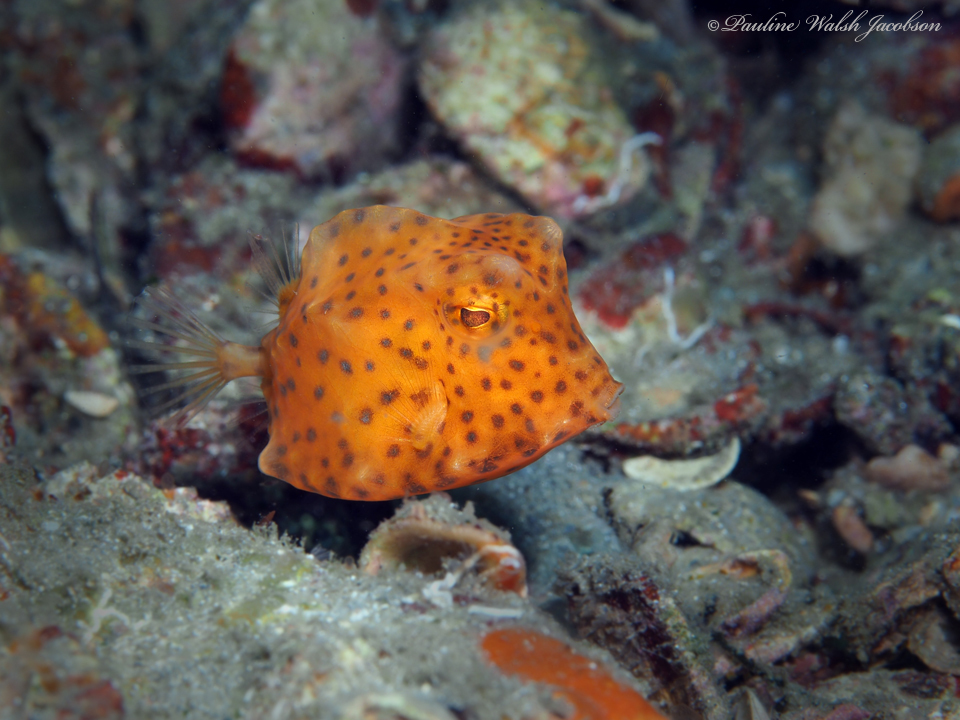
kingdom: Animalia
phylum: Chordata
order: Tetraodontiformes
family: Ostraciidae
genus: Acanthostracion
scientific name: Acanthostracion polygonius
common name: Honeycomb cowfish
